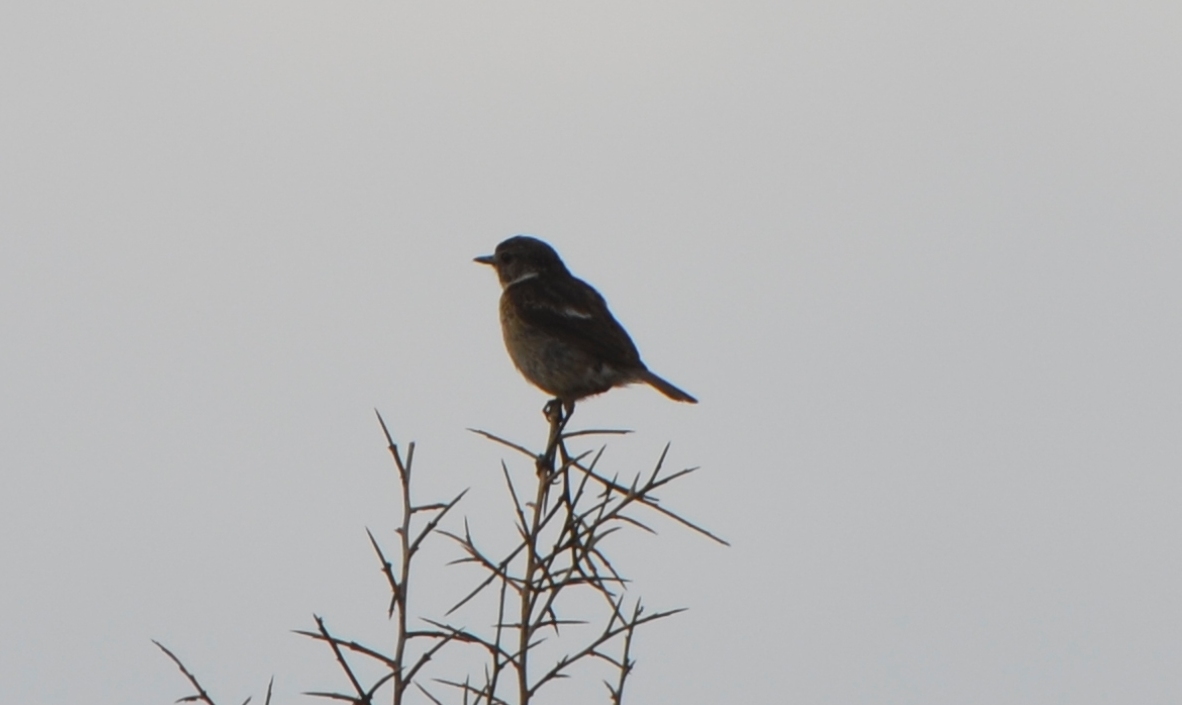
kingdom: Animalia
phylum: Chordata
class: Aves
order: Passeriformes
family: Muscicapidae
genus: Saxicola
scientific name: Saxicola rubicola
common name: European stonechat
